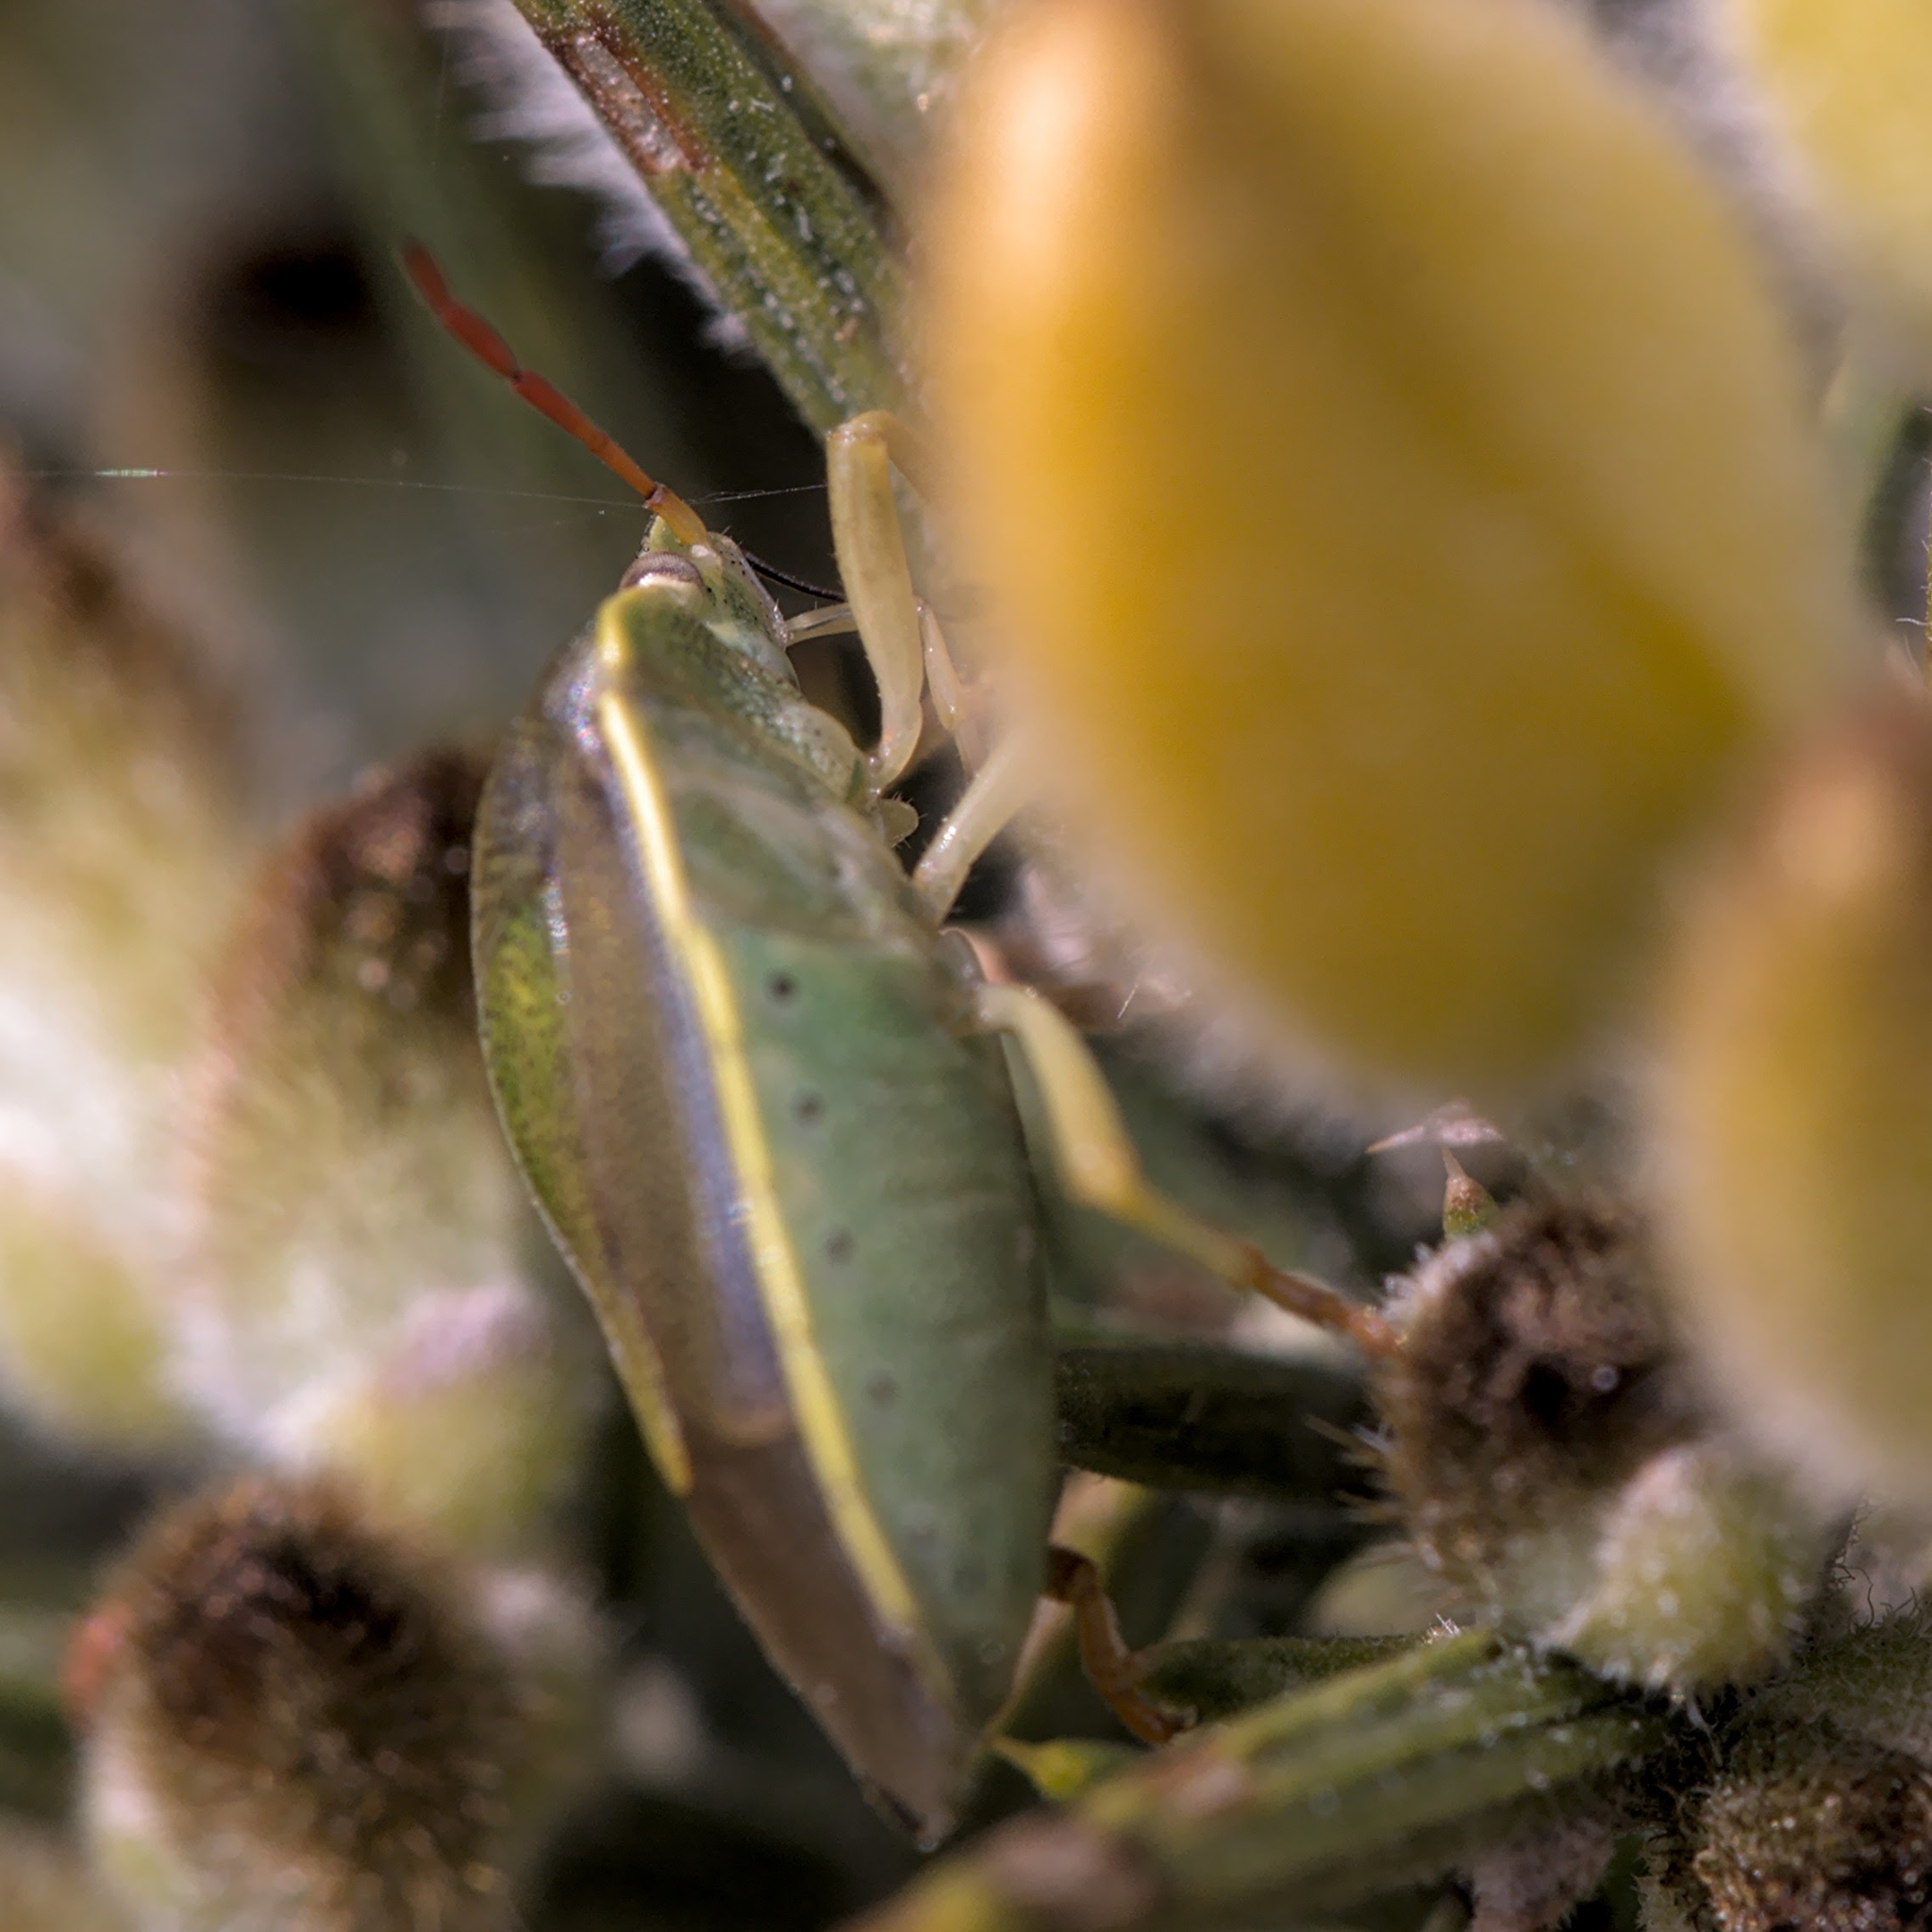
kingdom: Animalia
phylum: Arthropoda
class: Insecta
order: Hemiptera
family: Pentatomidae
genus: Piezodorus
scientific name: Piezodorus lituratus
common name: Stink bug
